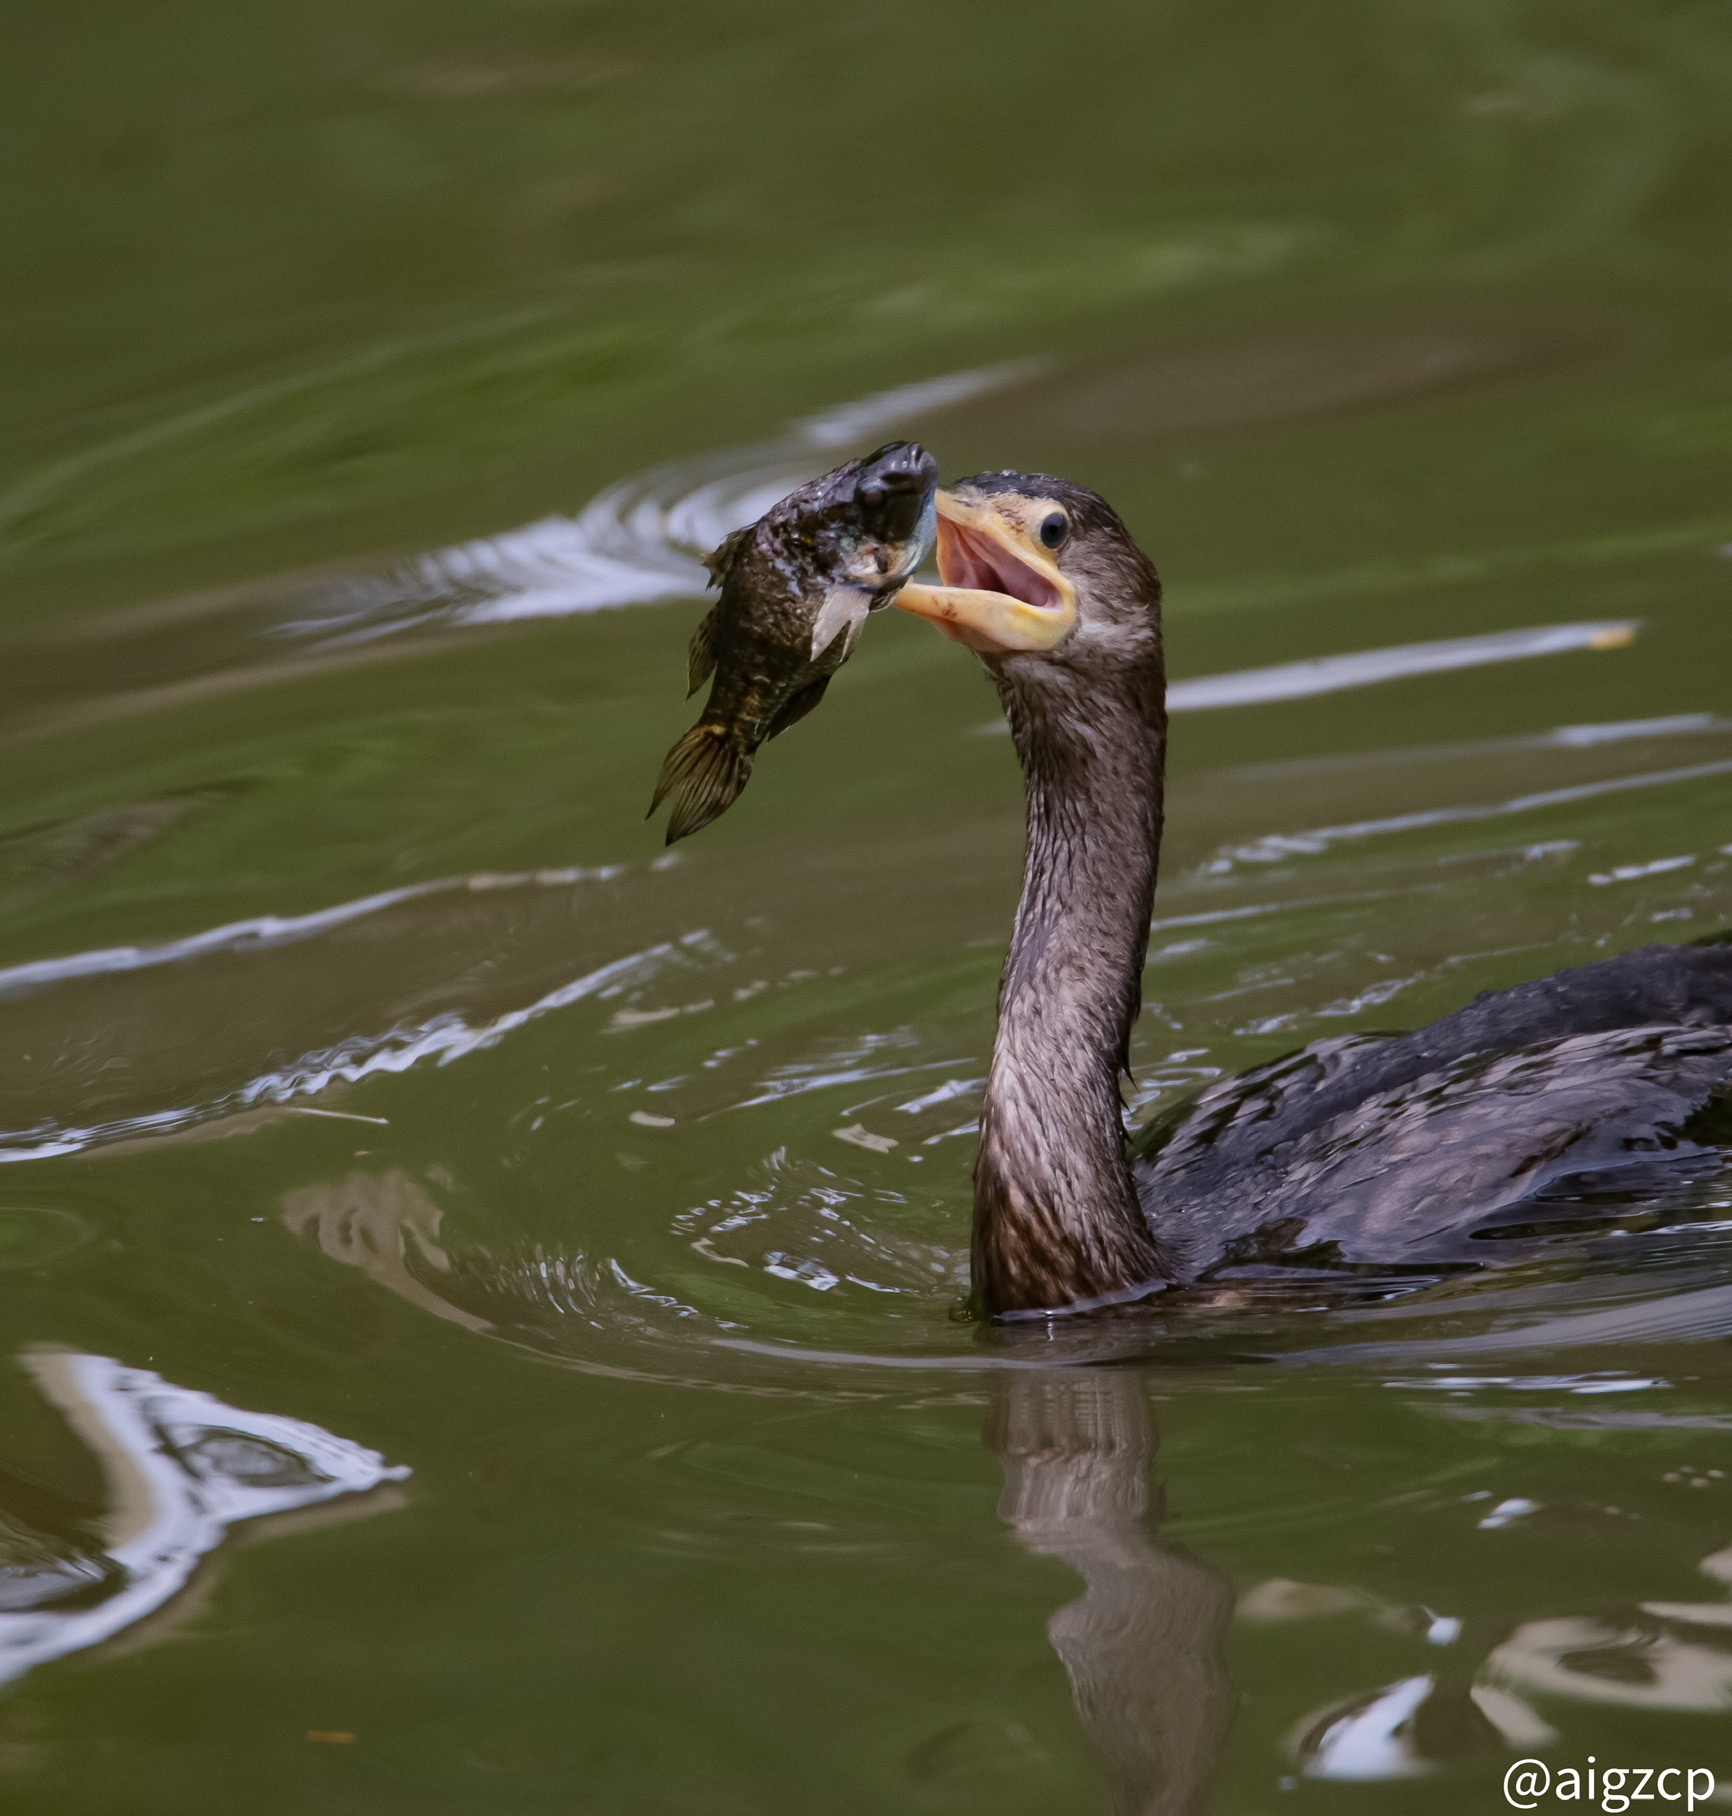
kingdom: Animalia
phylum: Chordata
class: Aves
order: Suliformes
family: Phalacrocoracidae
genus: Phalacrocorax
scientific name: Phalacrocorax brasilianus
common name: Neotropic cormorant
